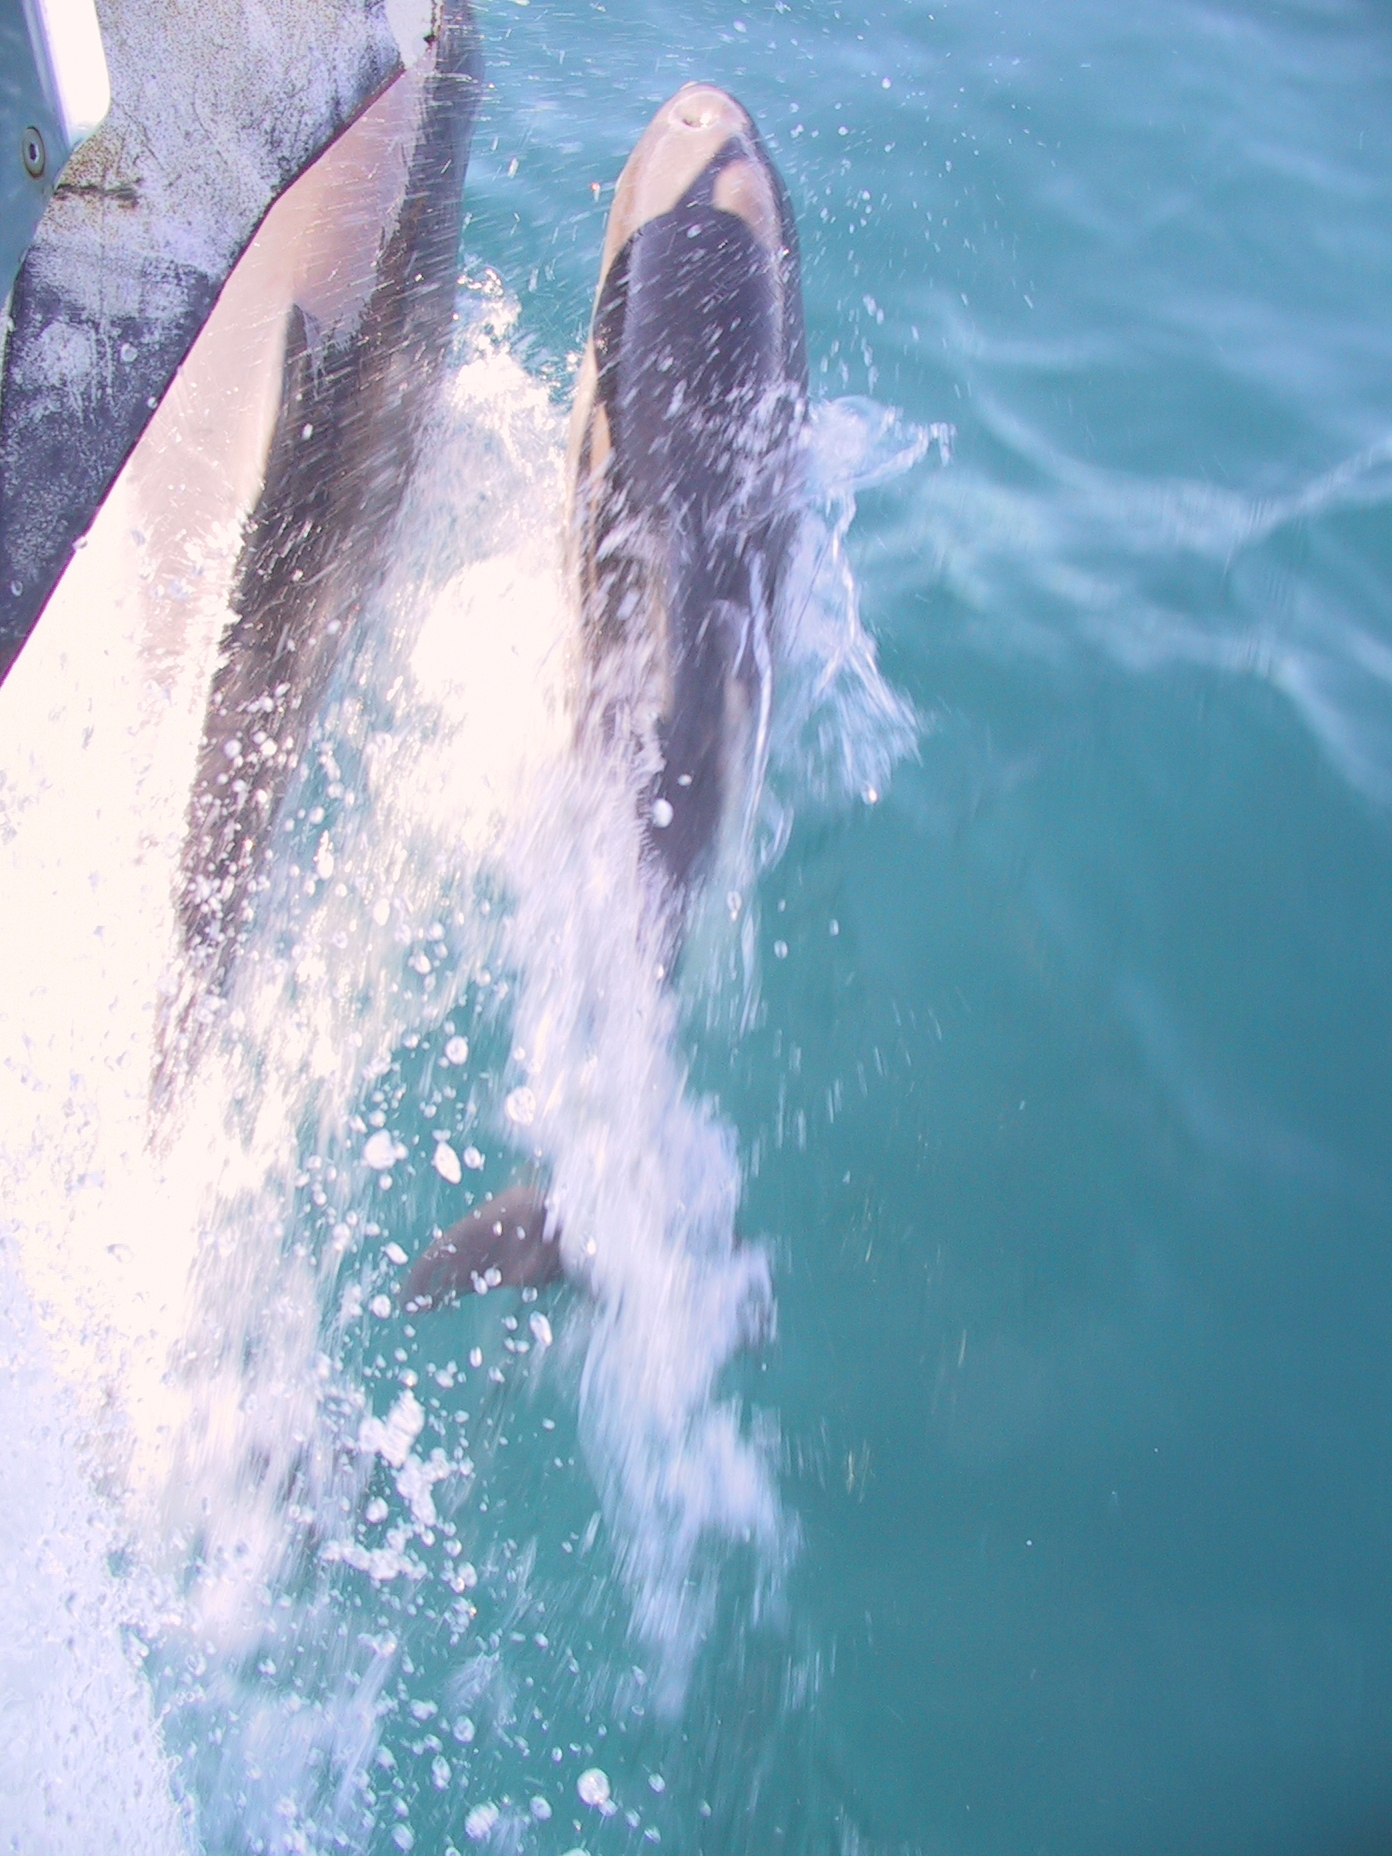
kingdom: Animalia
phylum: Chordata
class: Mammalia
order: Cetacea
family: Delphinidae
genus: Tursiops
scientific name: Tursiops truncatus
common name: Bottlenose dolphin
